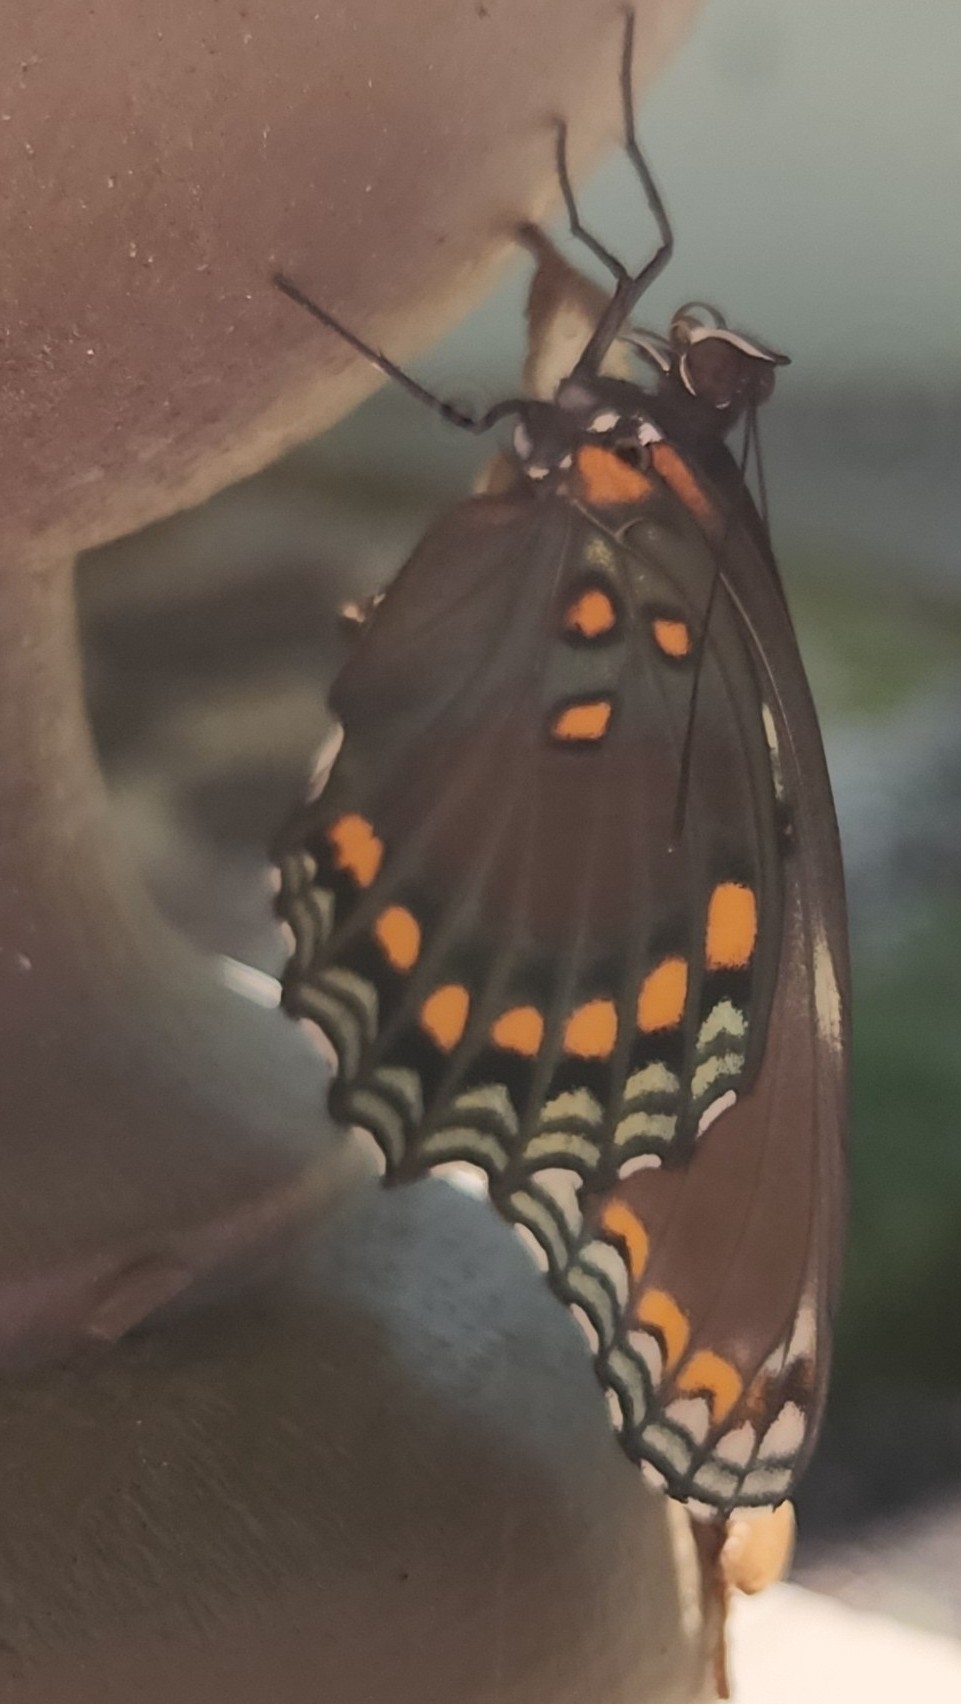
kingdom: Animalia
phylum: Arthropoda
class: Insecta
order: Lepidoptera
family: Nymphalidae
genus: Limenitis
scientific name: Limenitis astyanax
